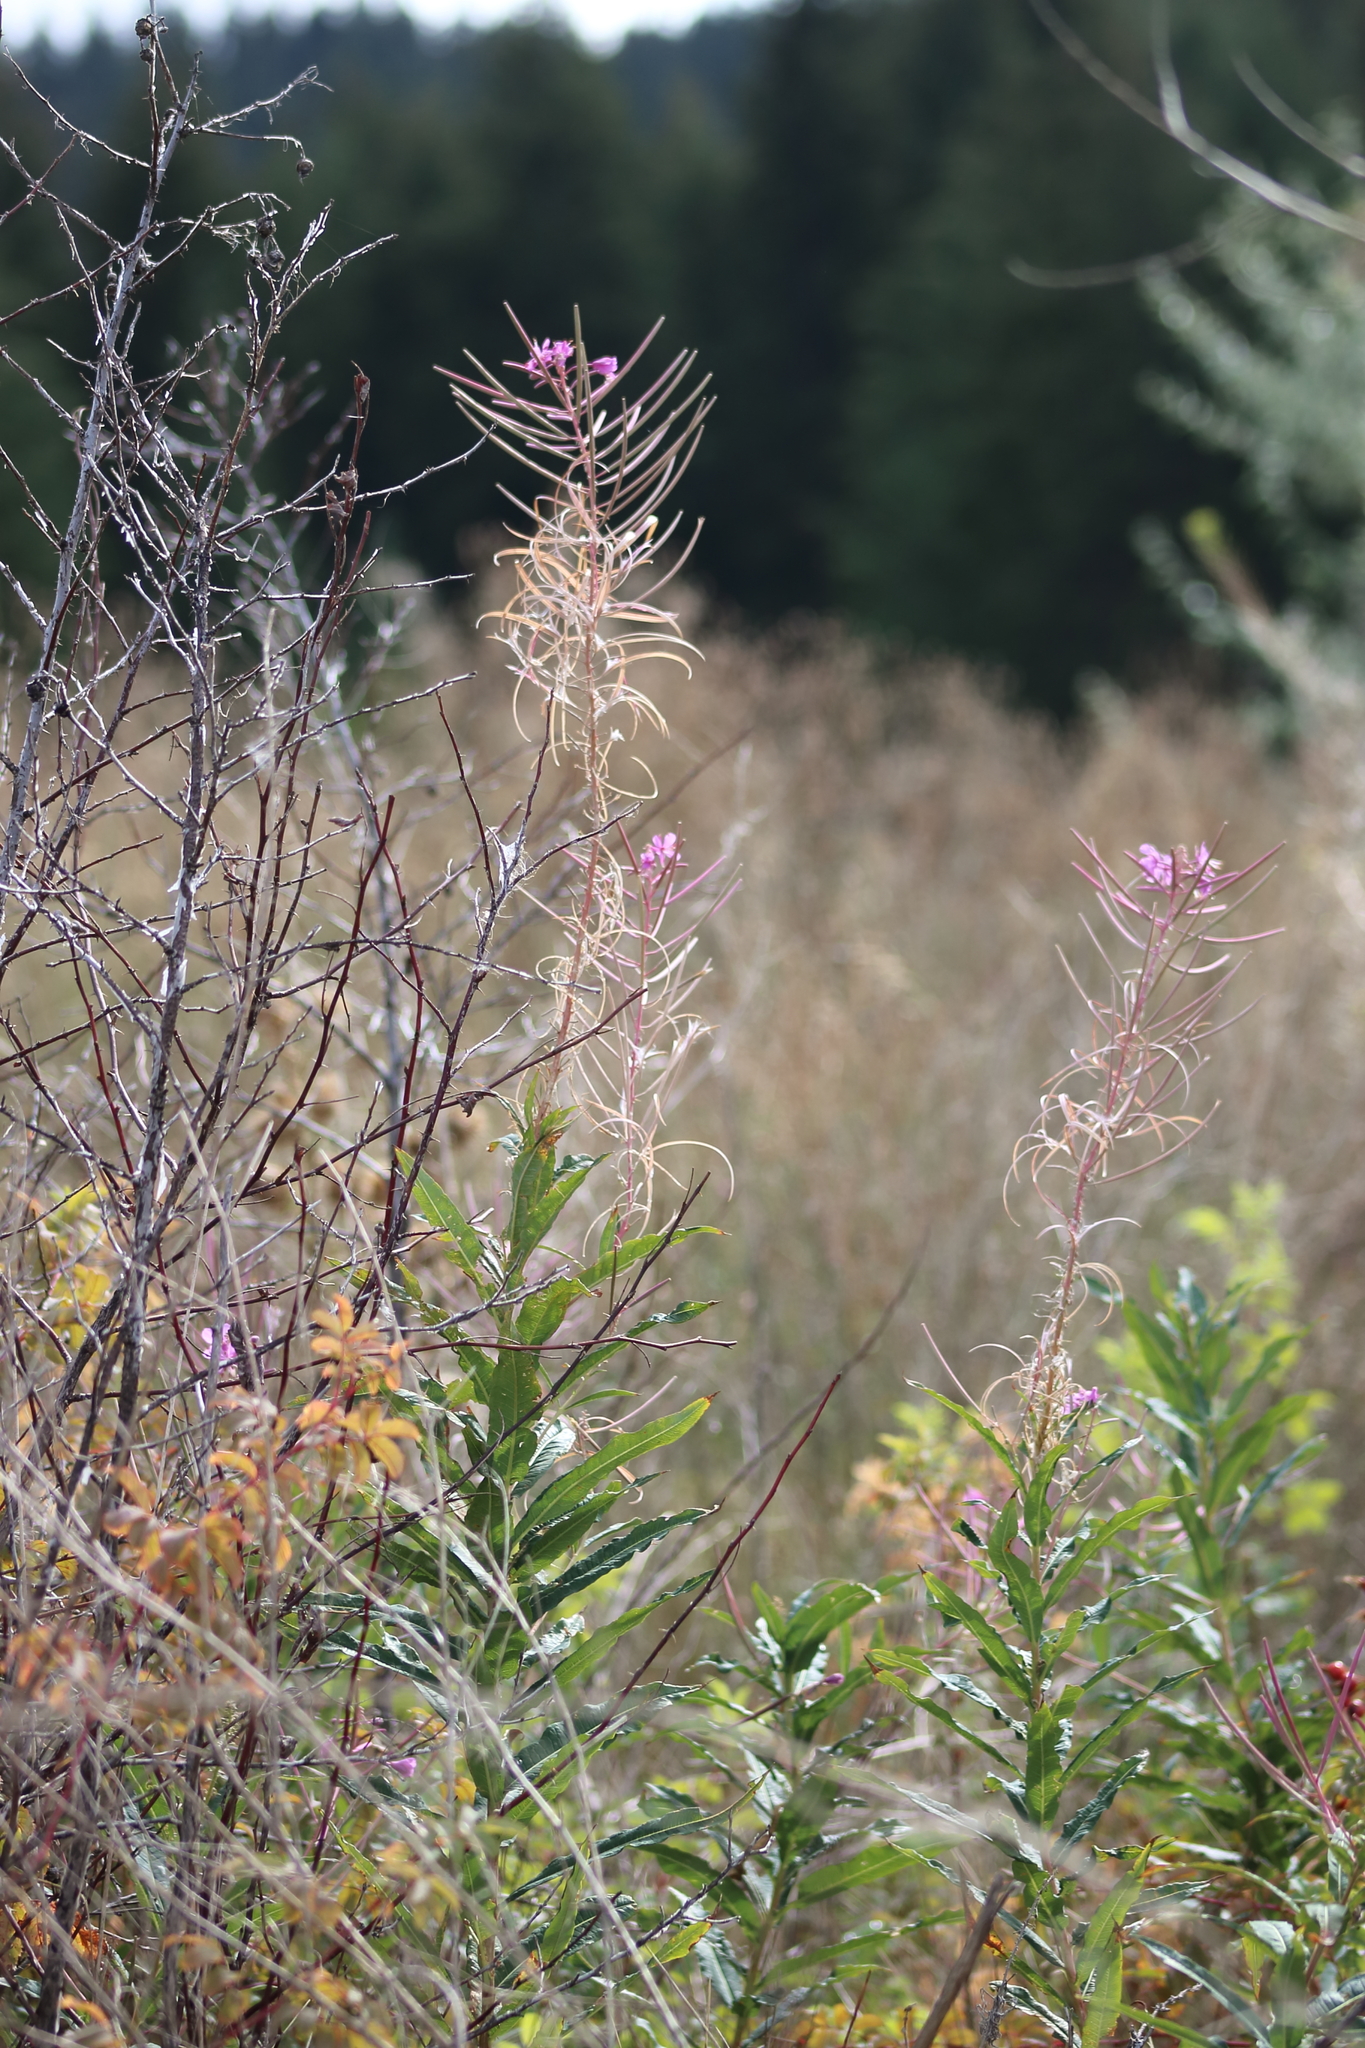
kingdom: Plantae
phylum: Tracheophyta
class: Magnoliopsida
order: Myrtales
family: Onagraceae
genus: Chamaenerion
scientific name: Chamaenerion angustifolium
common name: Fireweed
